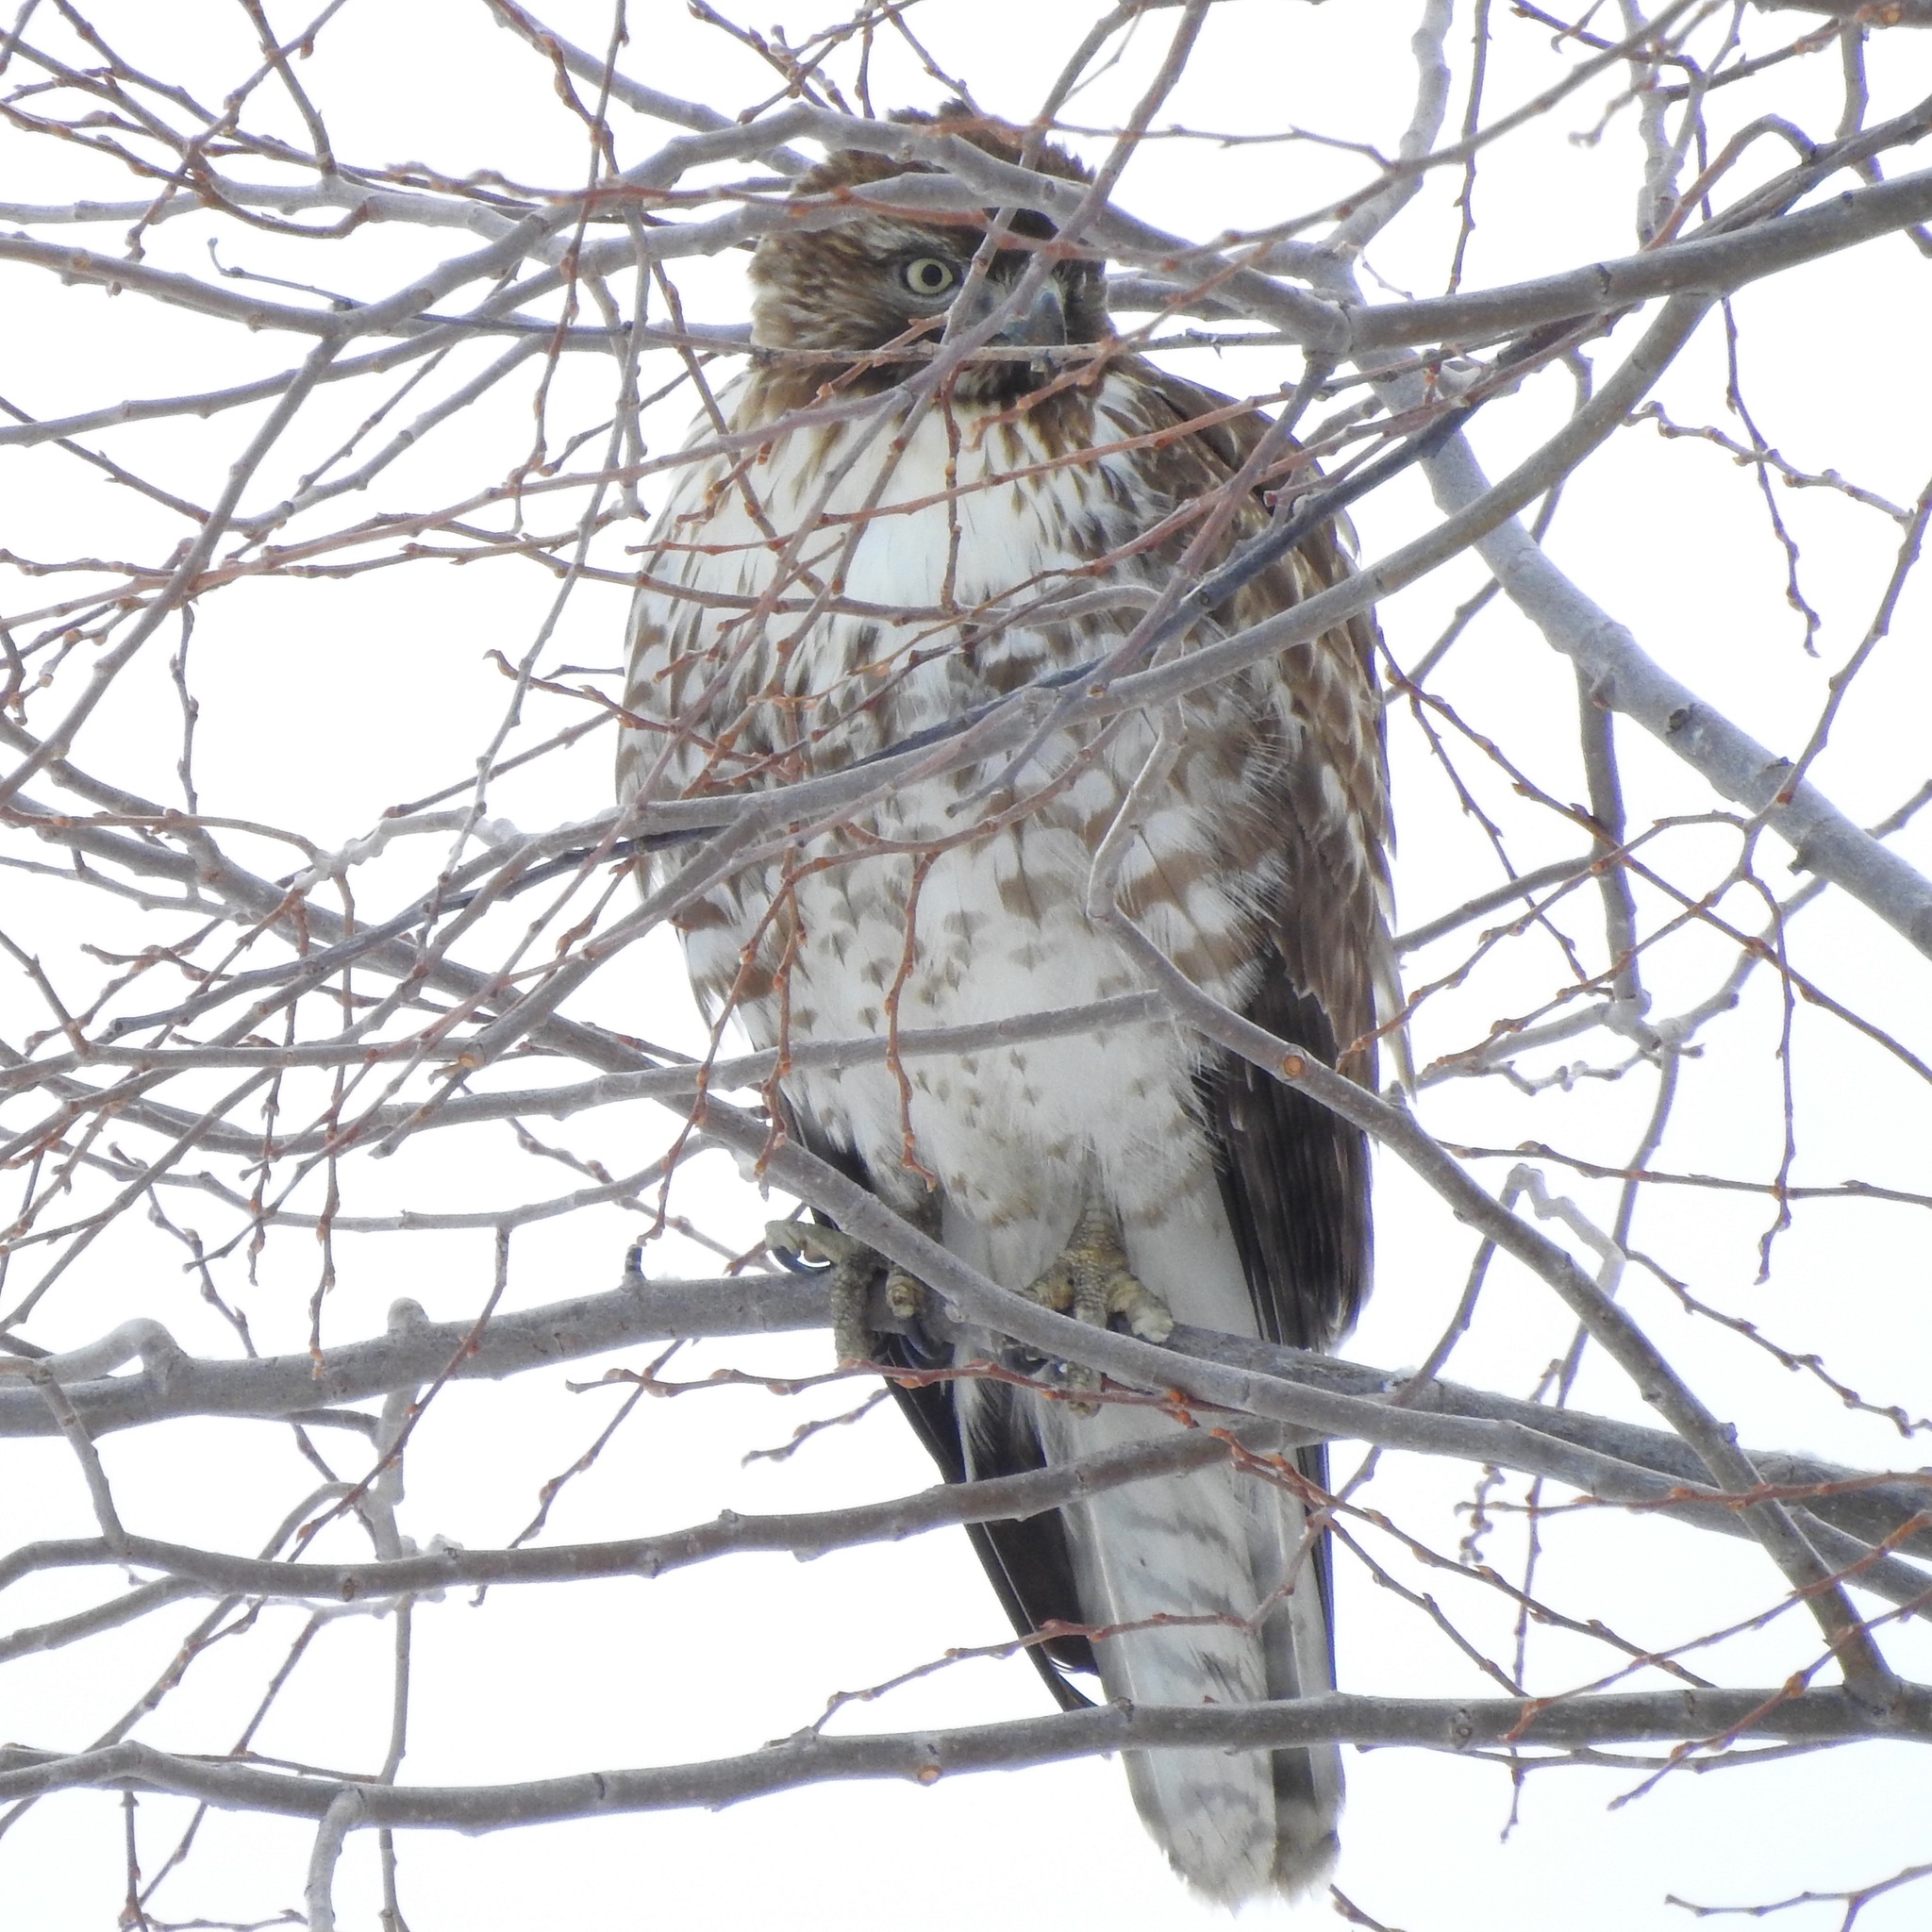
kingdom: Animalia
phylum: Chordata
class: Aves
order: Accipitriformes
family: Accipitridae
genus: Buteo
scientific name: Buteo jamaicensis
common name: Red-tailed hawk
